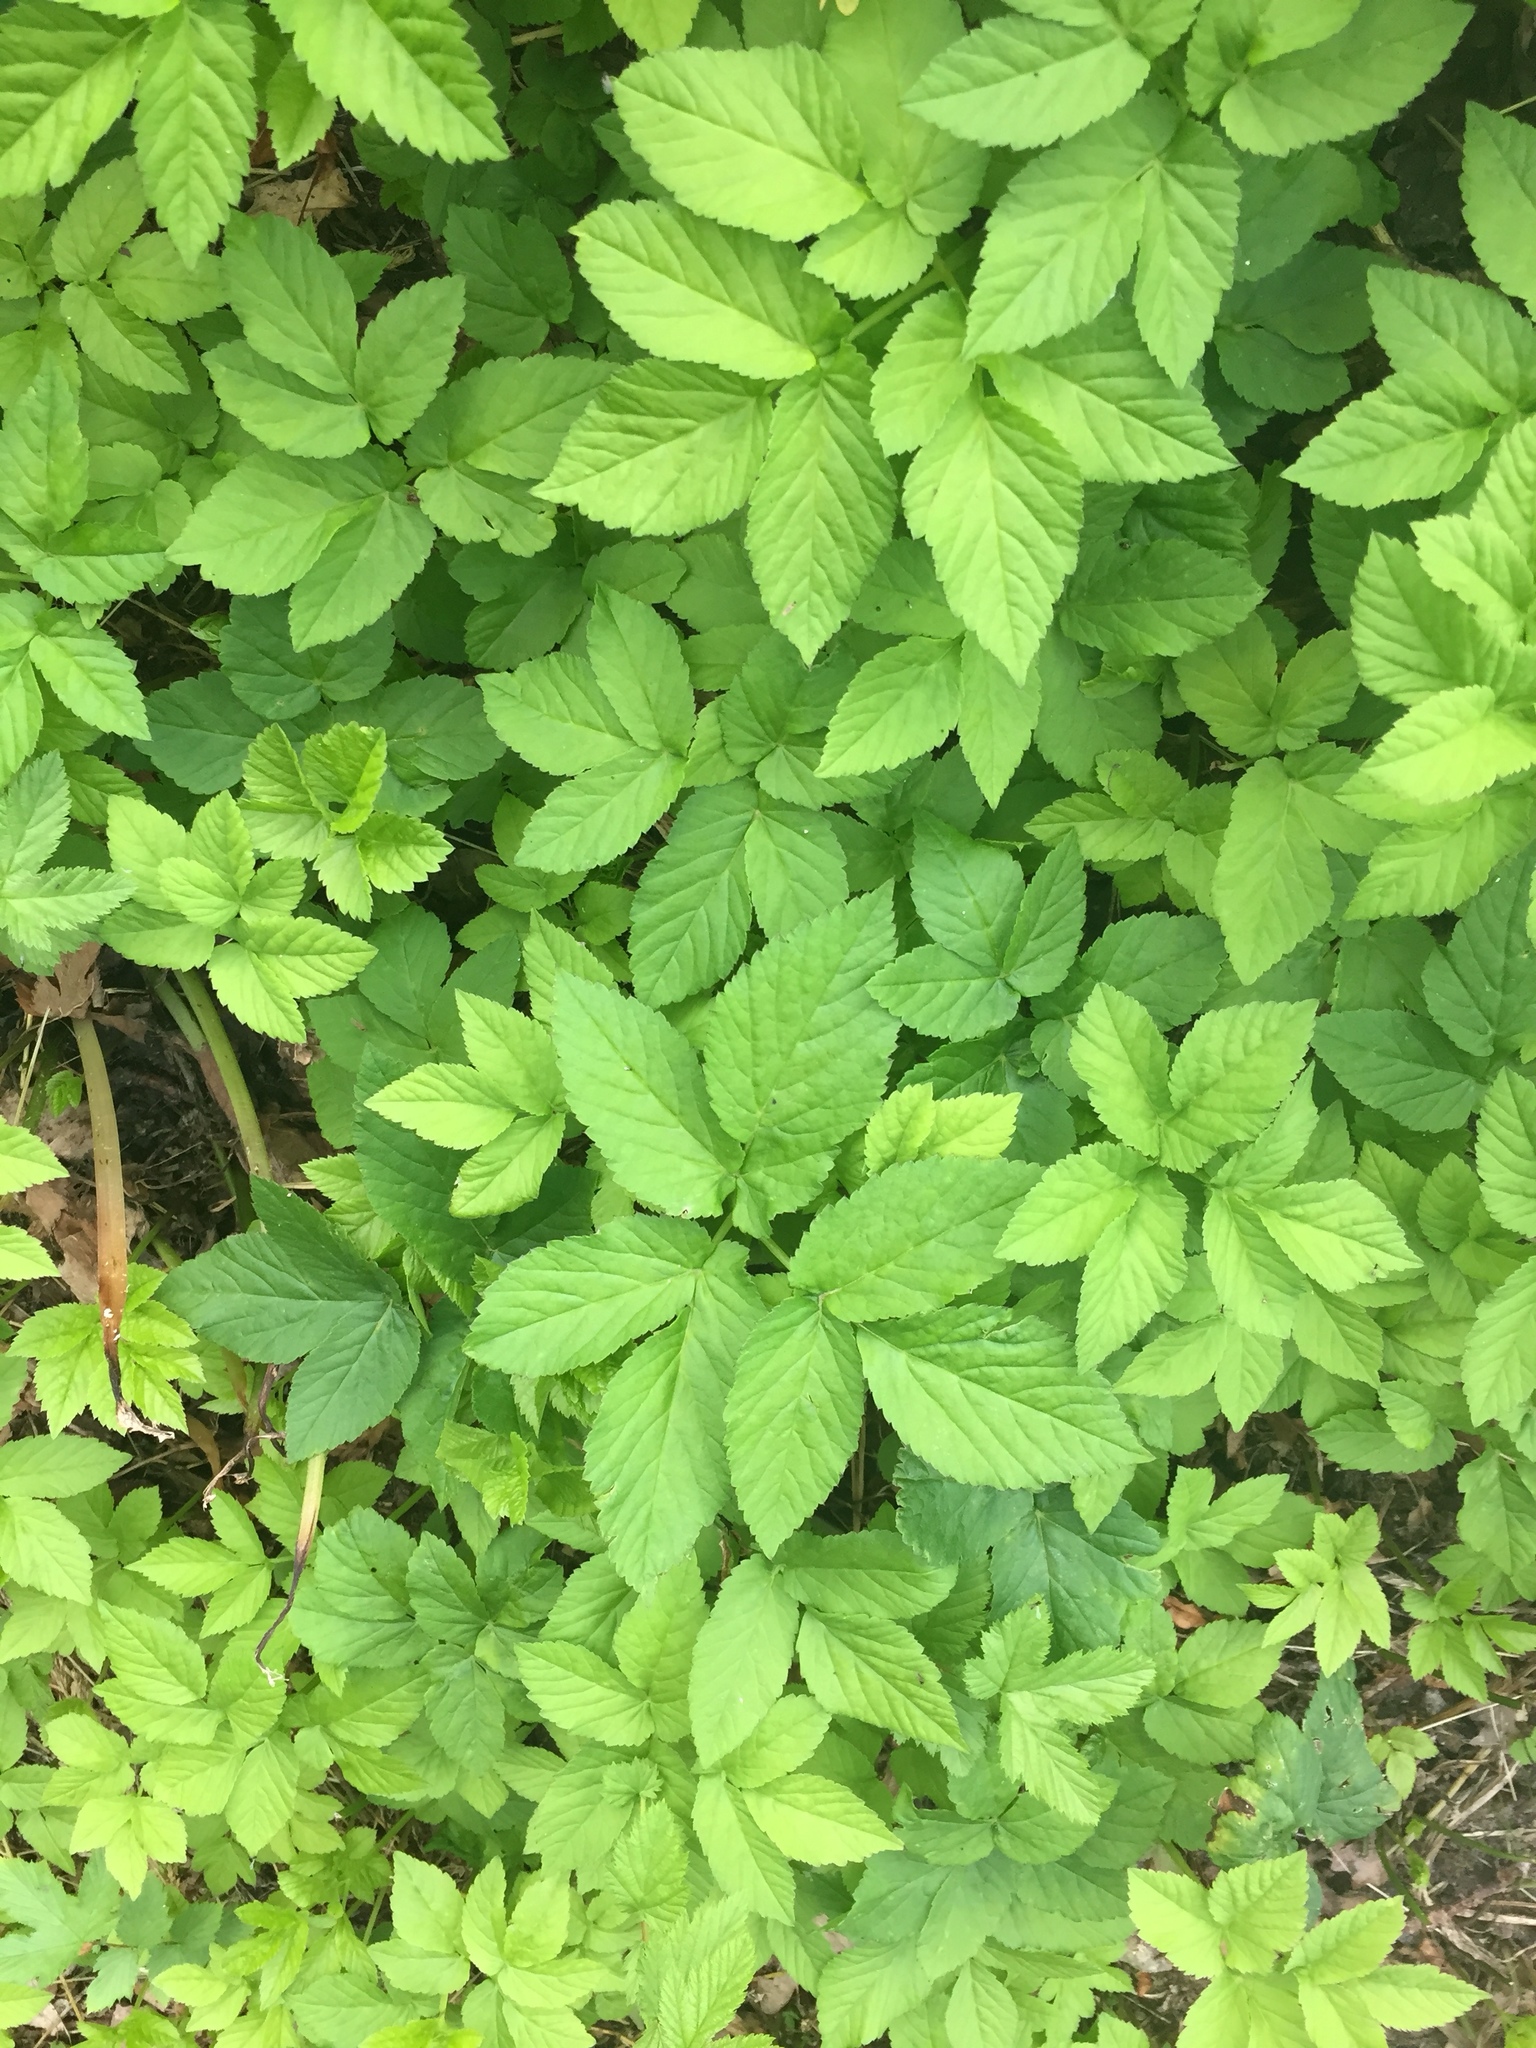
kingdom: Plantae
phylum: Tracheophyta
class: Magnoliopsida
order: Apiales
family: Apiaceae
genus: Aegopodium
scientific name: Aegopodium podagraria
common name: Ground-elder
